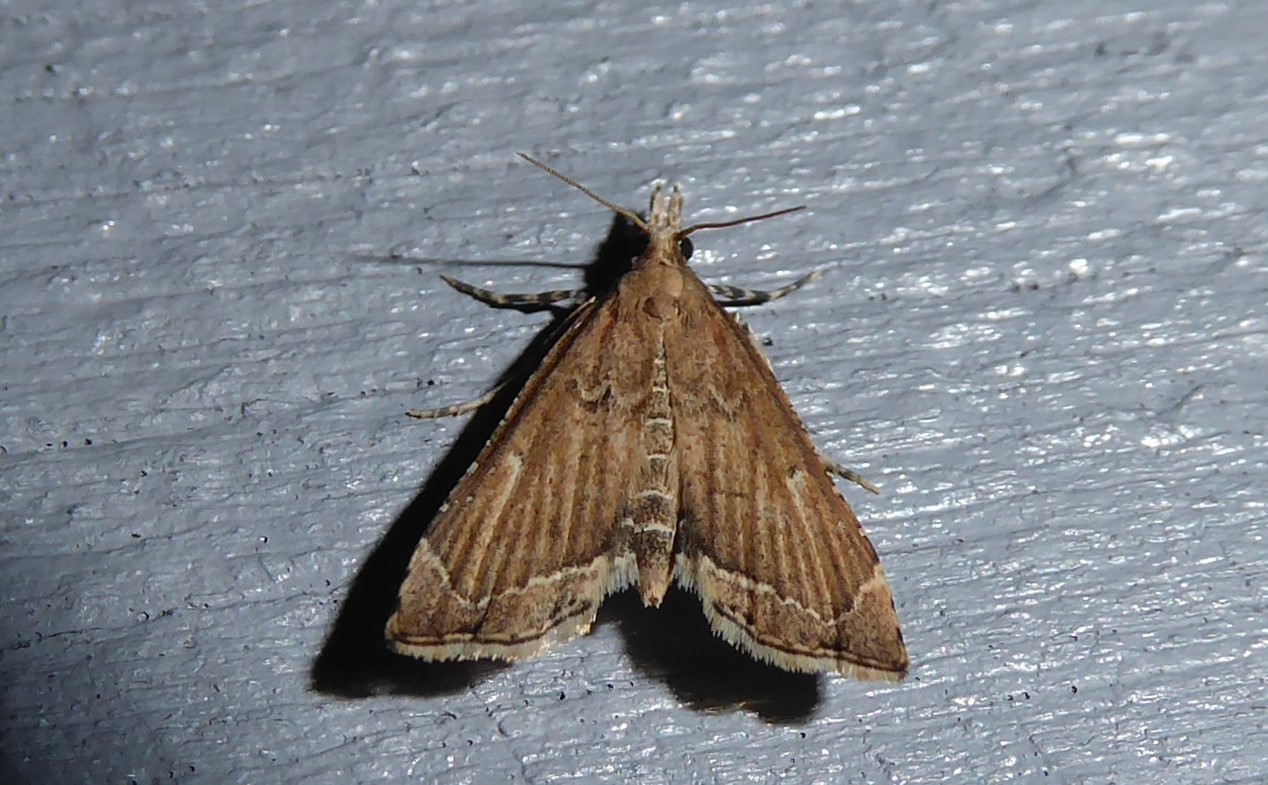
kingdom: Animalia
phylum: Arthropoda
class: Insecta
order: Lepidoptera
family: Crambidae
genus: Diplopseustis
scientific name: Diplopseustis perieresalis
